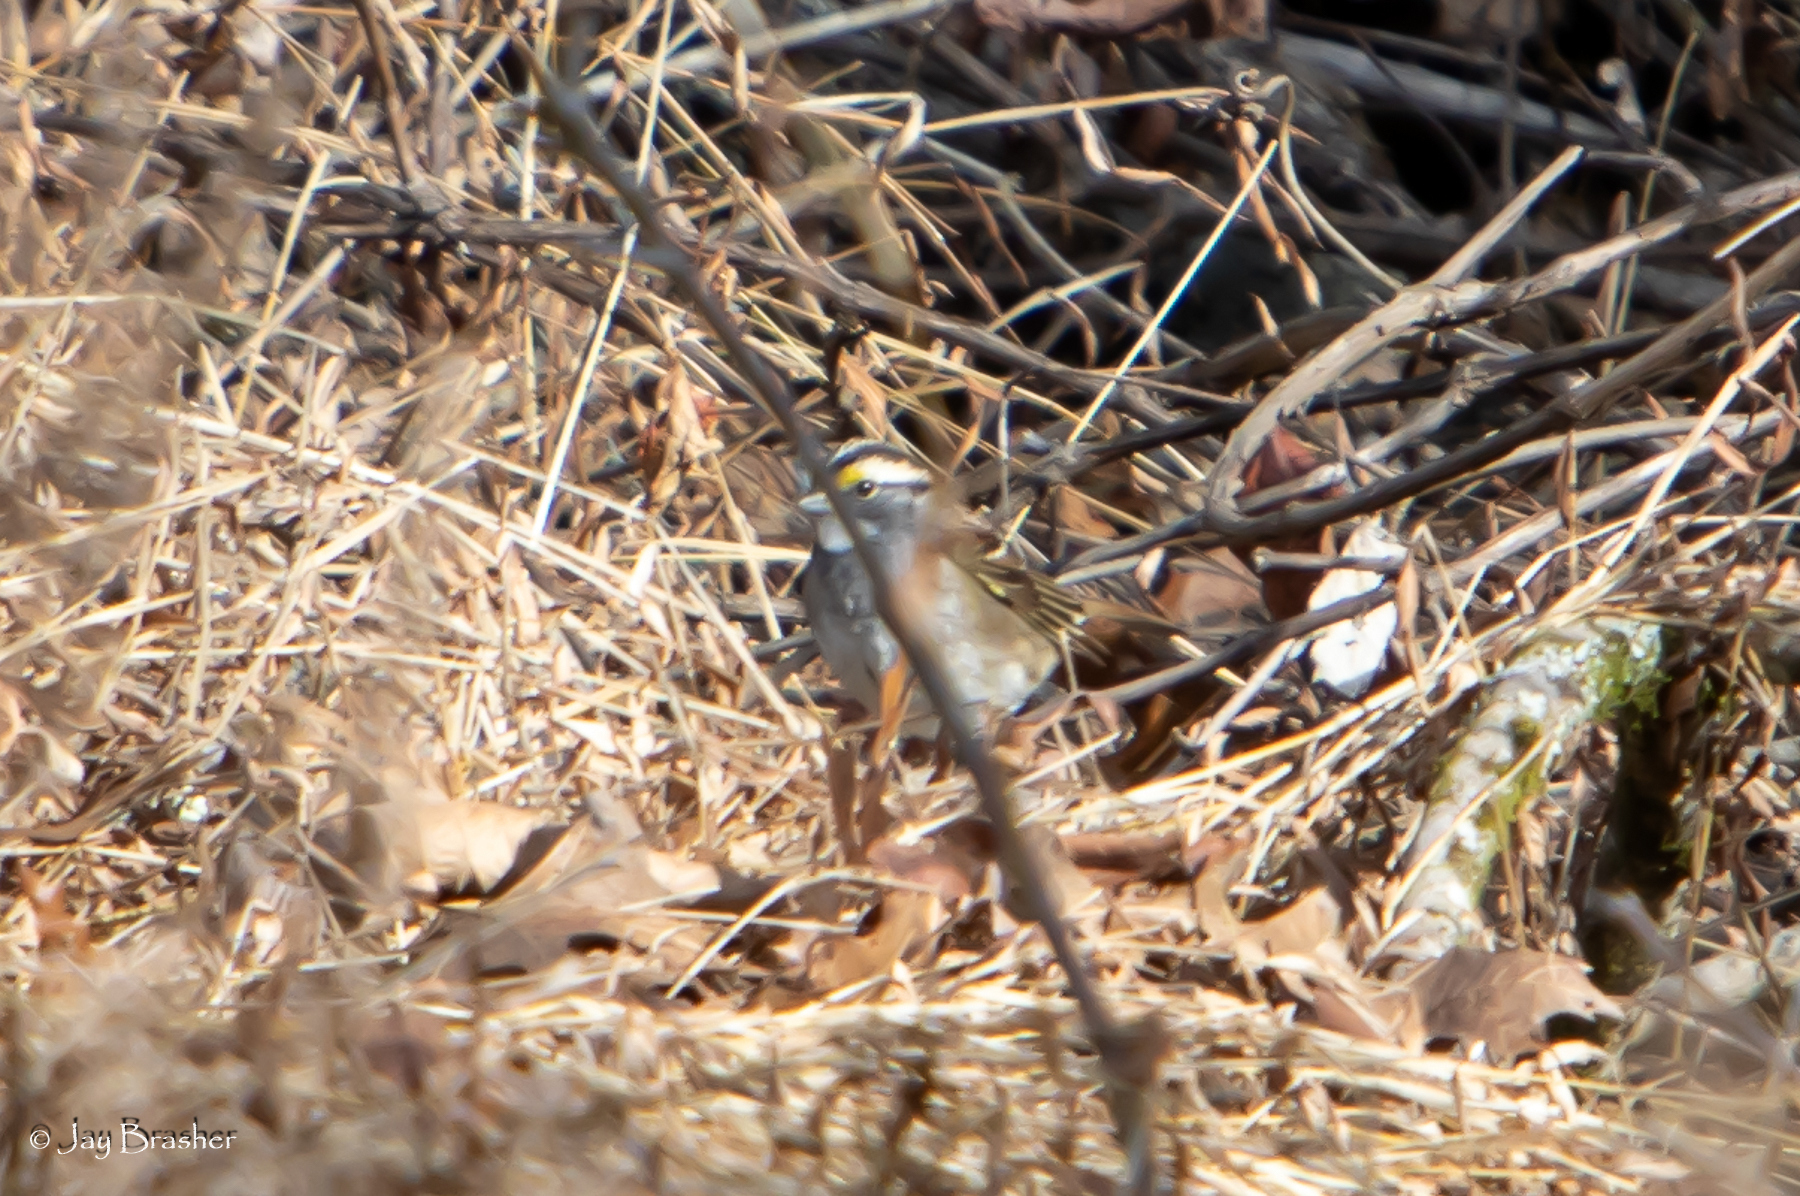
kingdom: Animalia
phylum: Chordata
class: Aves
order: Passeriformes
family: Passerellidae
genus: Zonotrichia
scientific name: Zonotrichia albicollis
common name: White-throated sparrow
